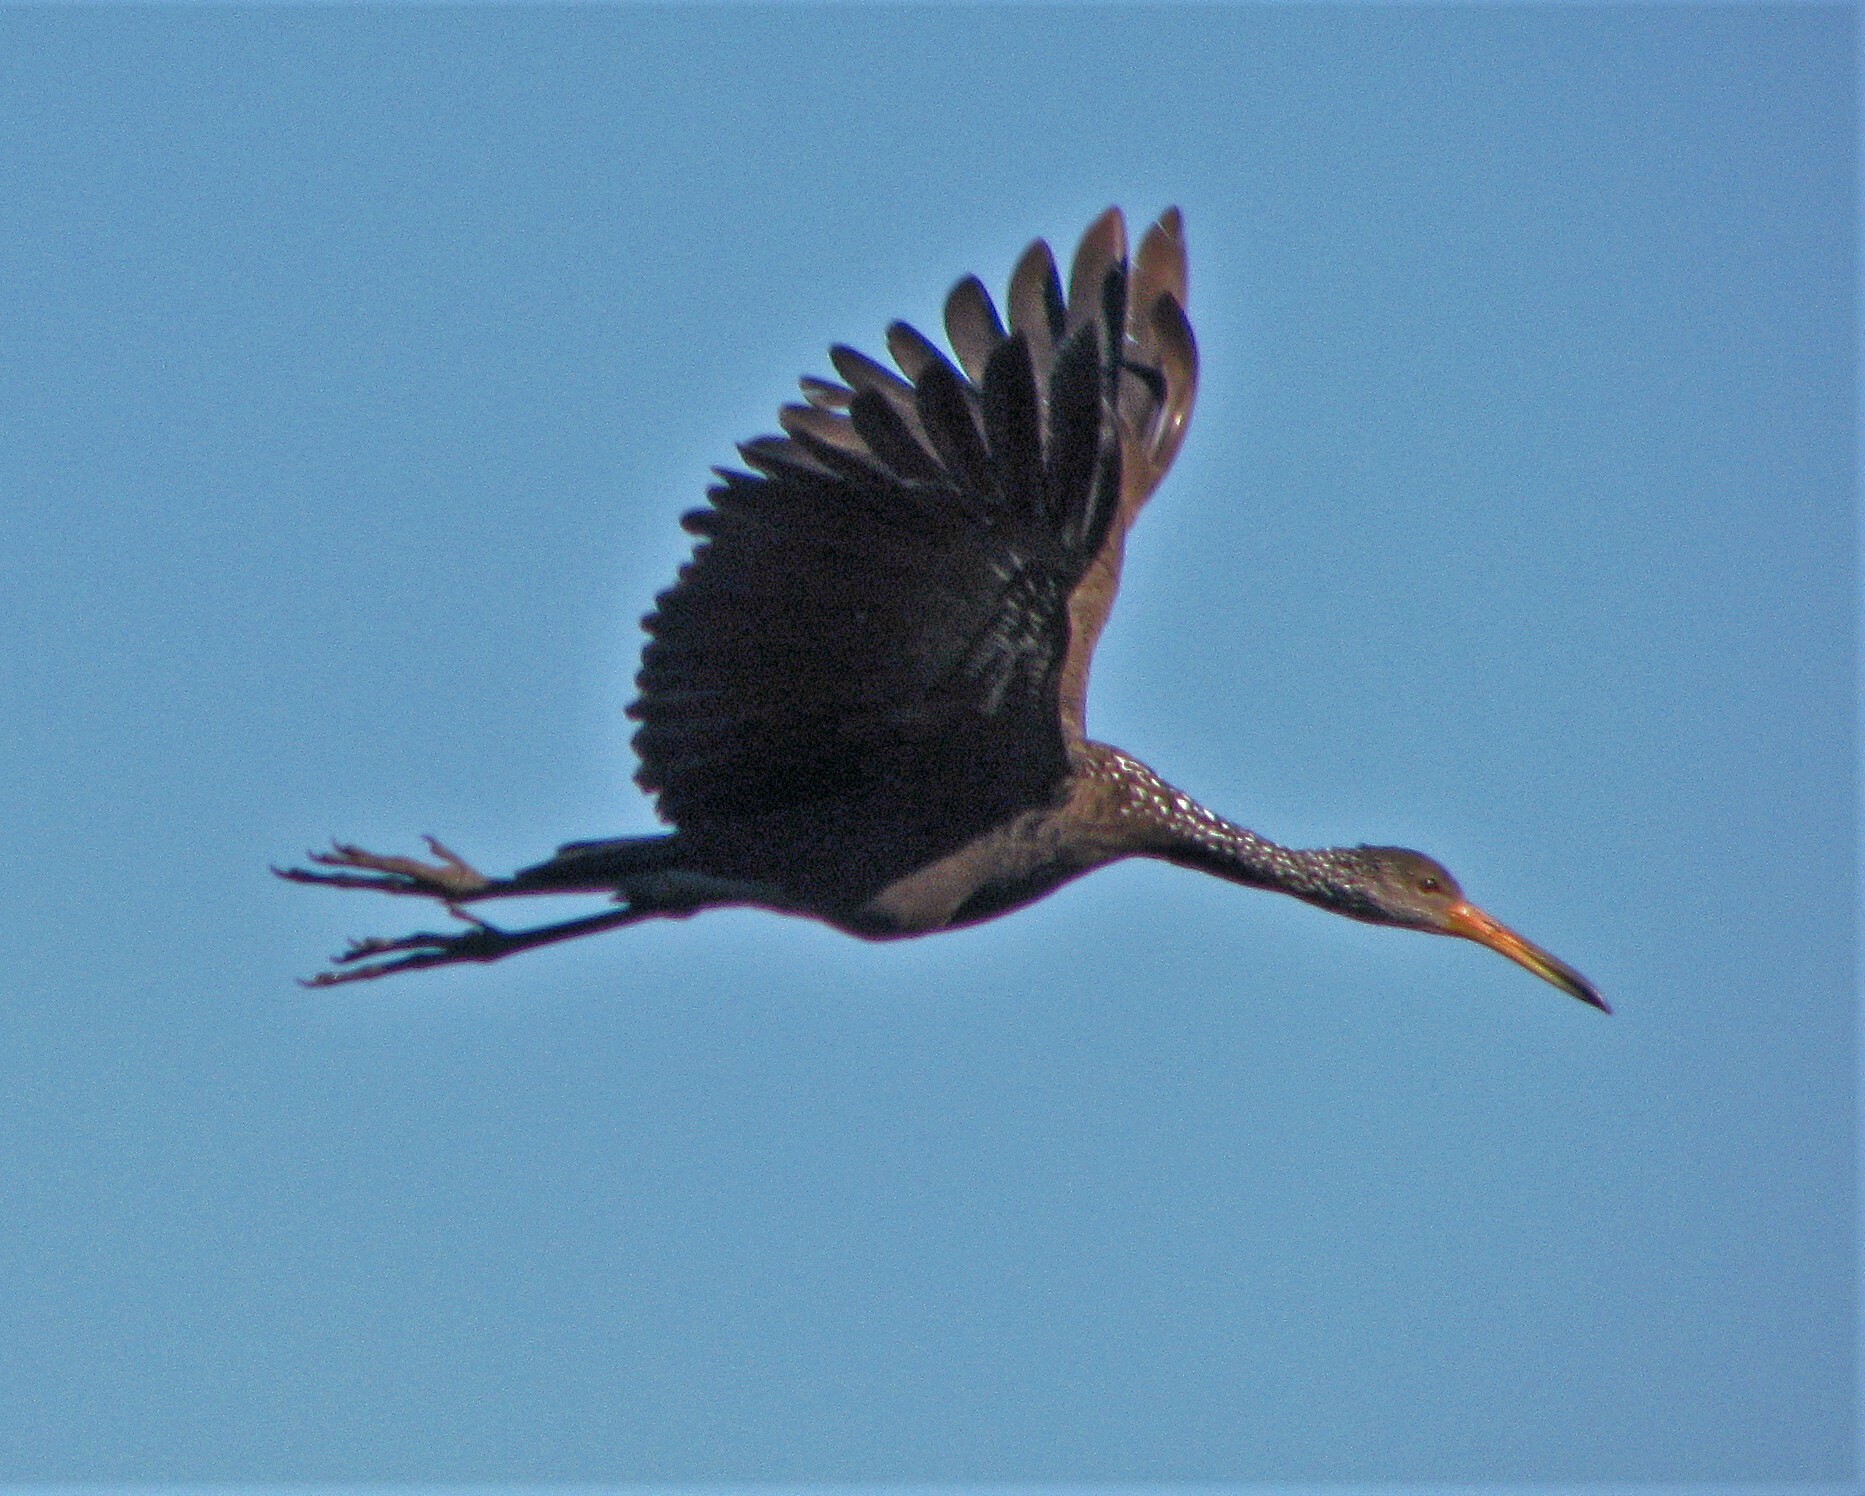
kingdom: Animalia
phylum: Chordata
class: Aves
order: Gruiformes
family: Aramidae
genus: Aramus
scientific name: Aramus guarauna
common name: Limpkin
